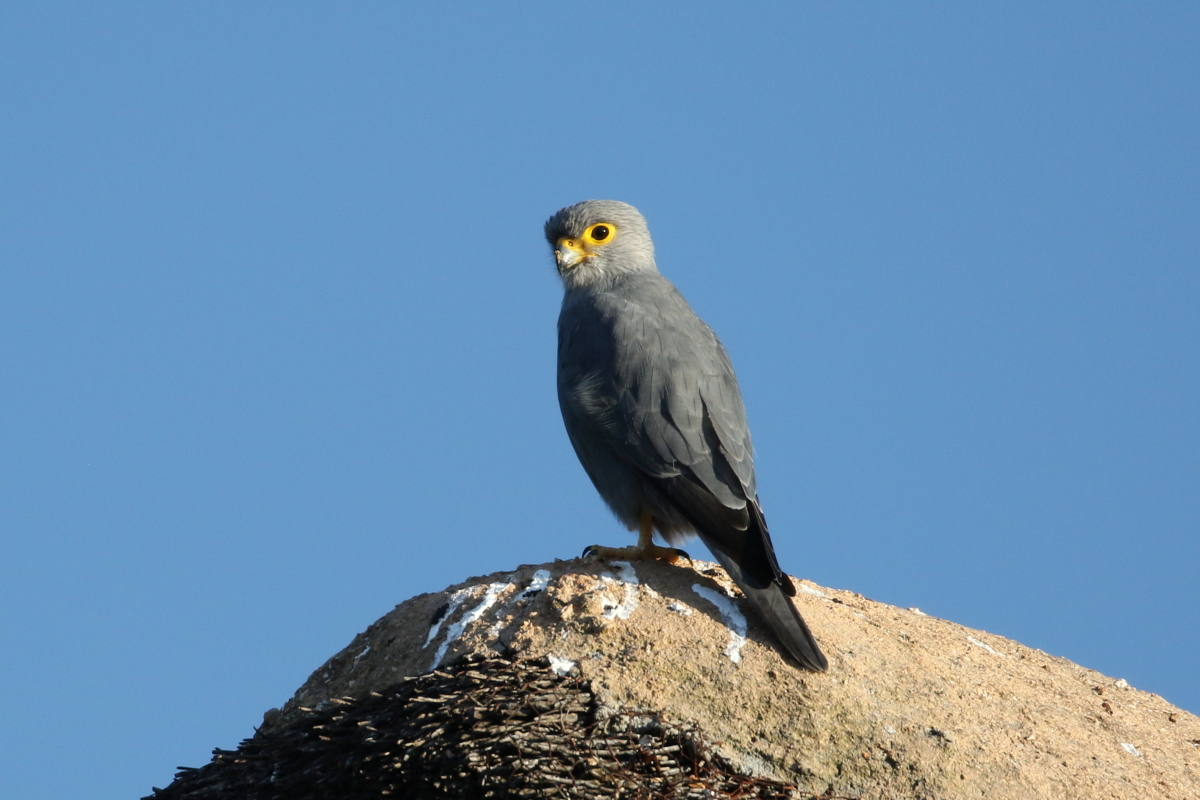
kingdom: Animalia
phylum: Chordata
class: Aves
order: Falconiformes
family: Falconidae
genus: Falco
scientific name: Falco ardosiaceus
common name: Grey kestrel
